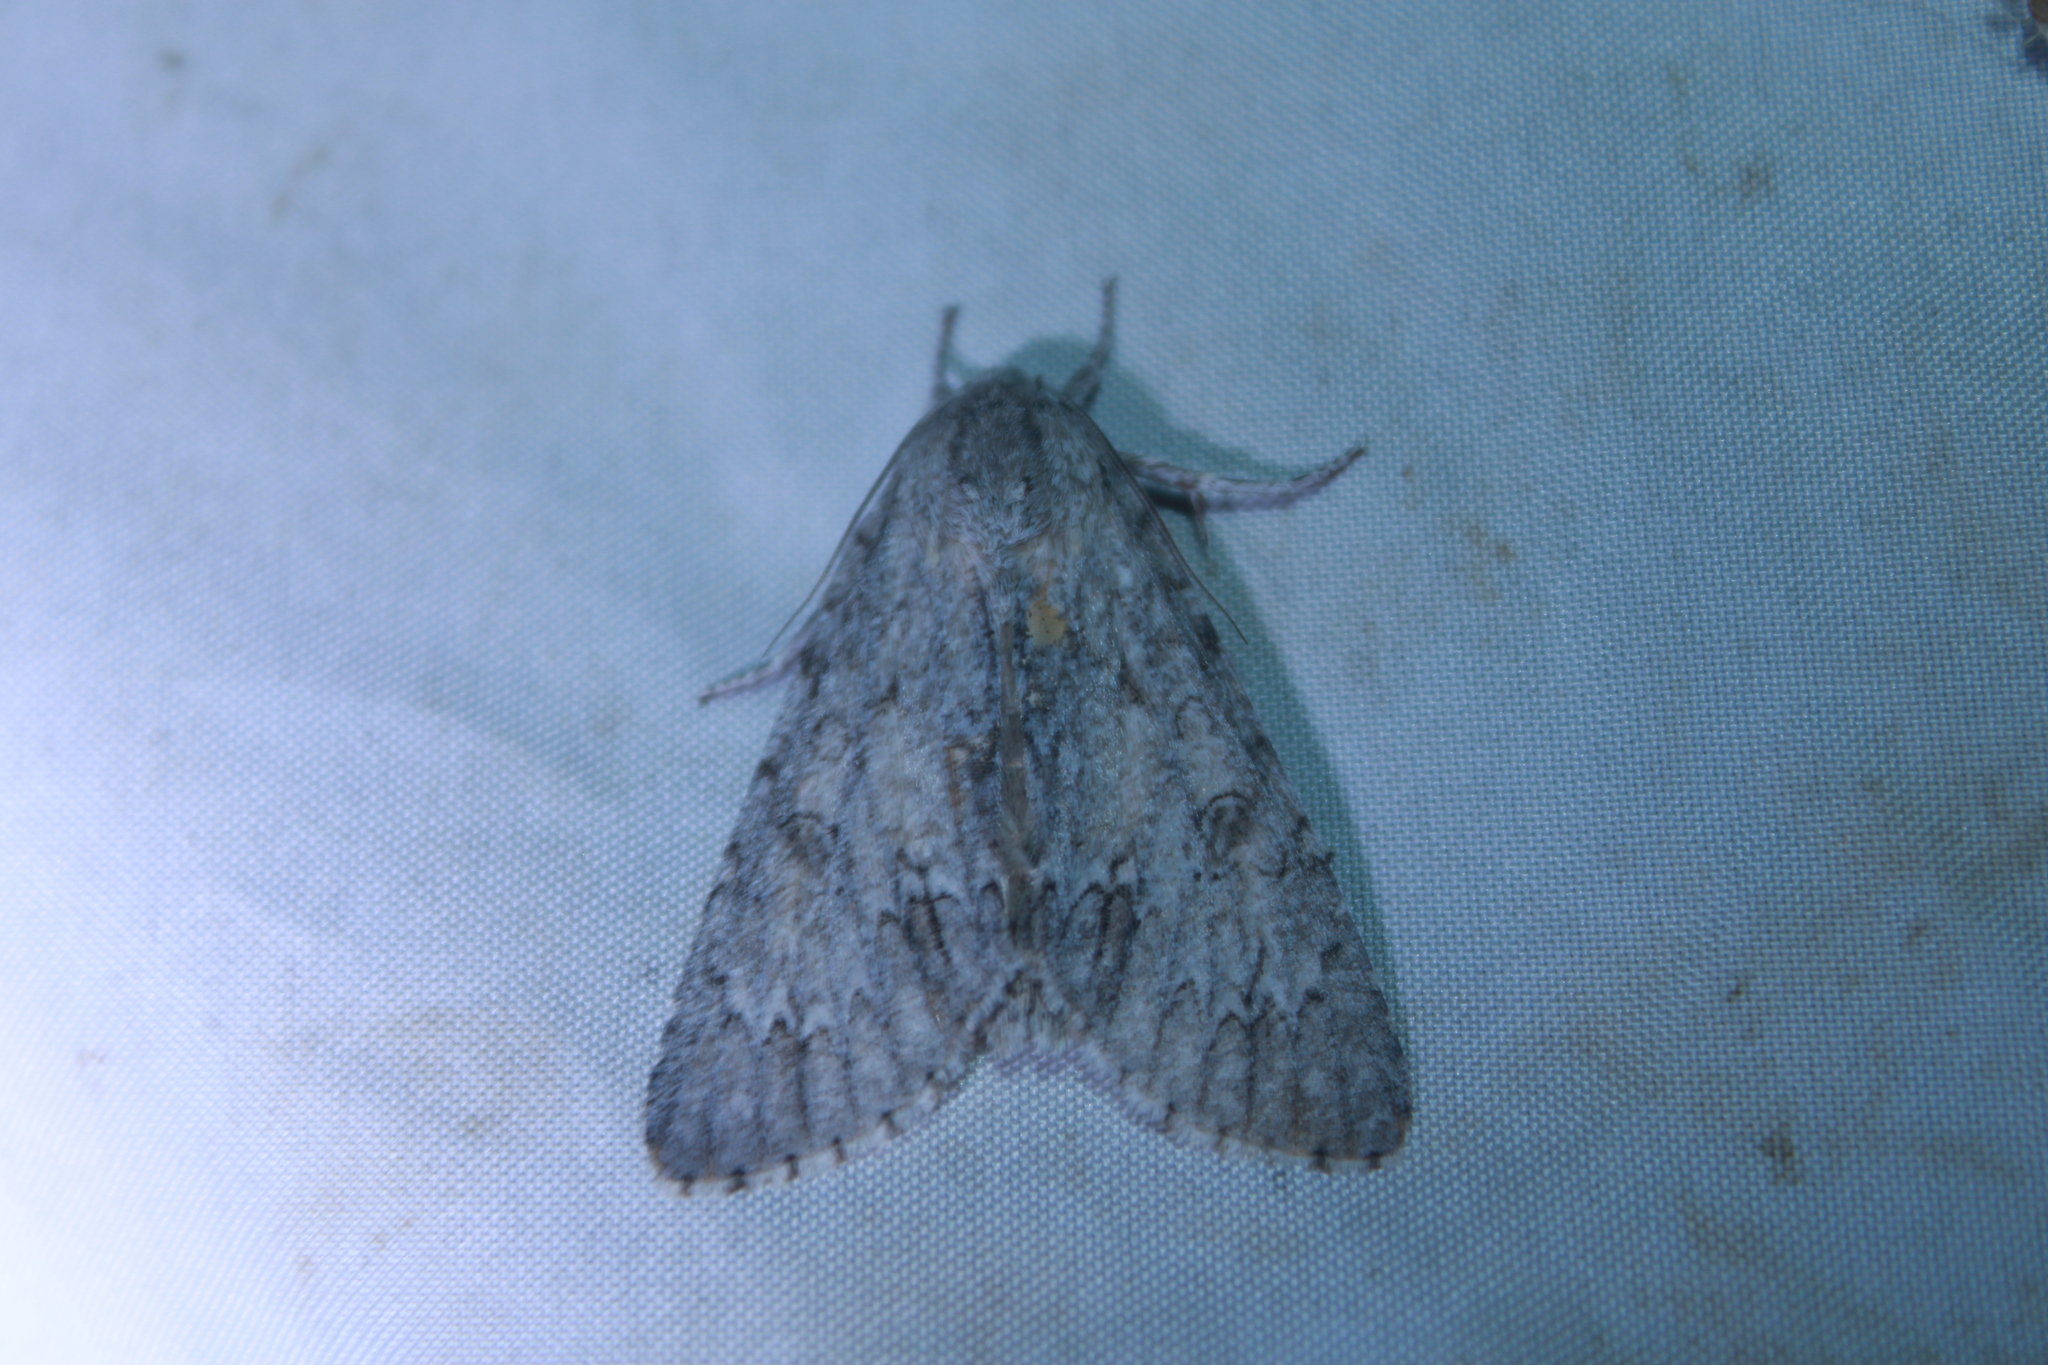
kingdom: Animalia
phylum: Arthropoda
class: Insecta
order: Lepidoptera
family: Noctuidae
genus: Acronicta
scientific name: Acronicta americana
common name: American dagger
